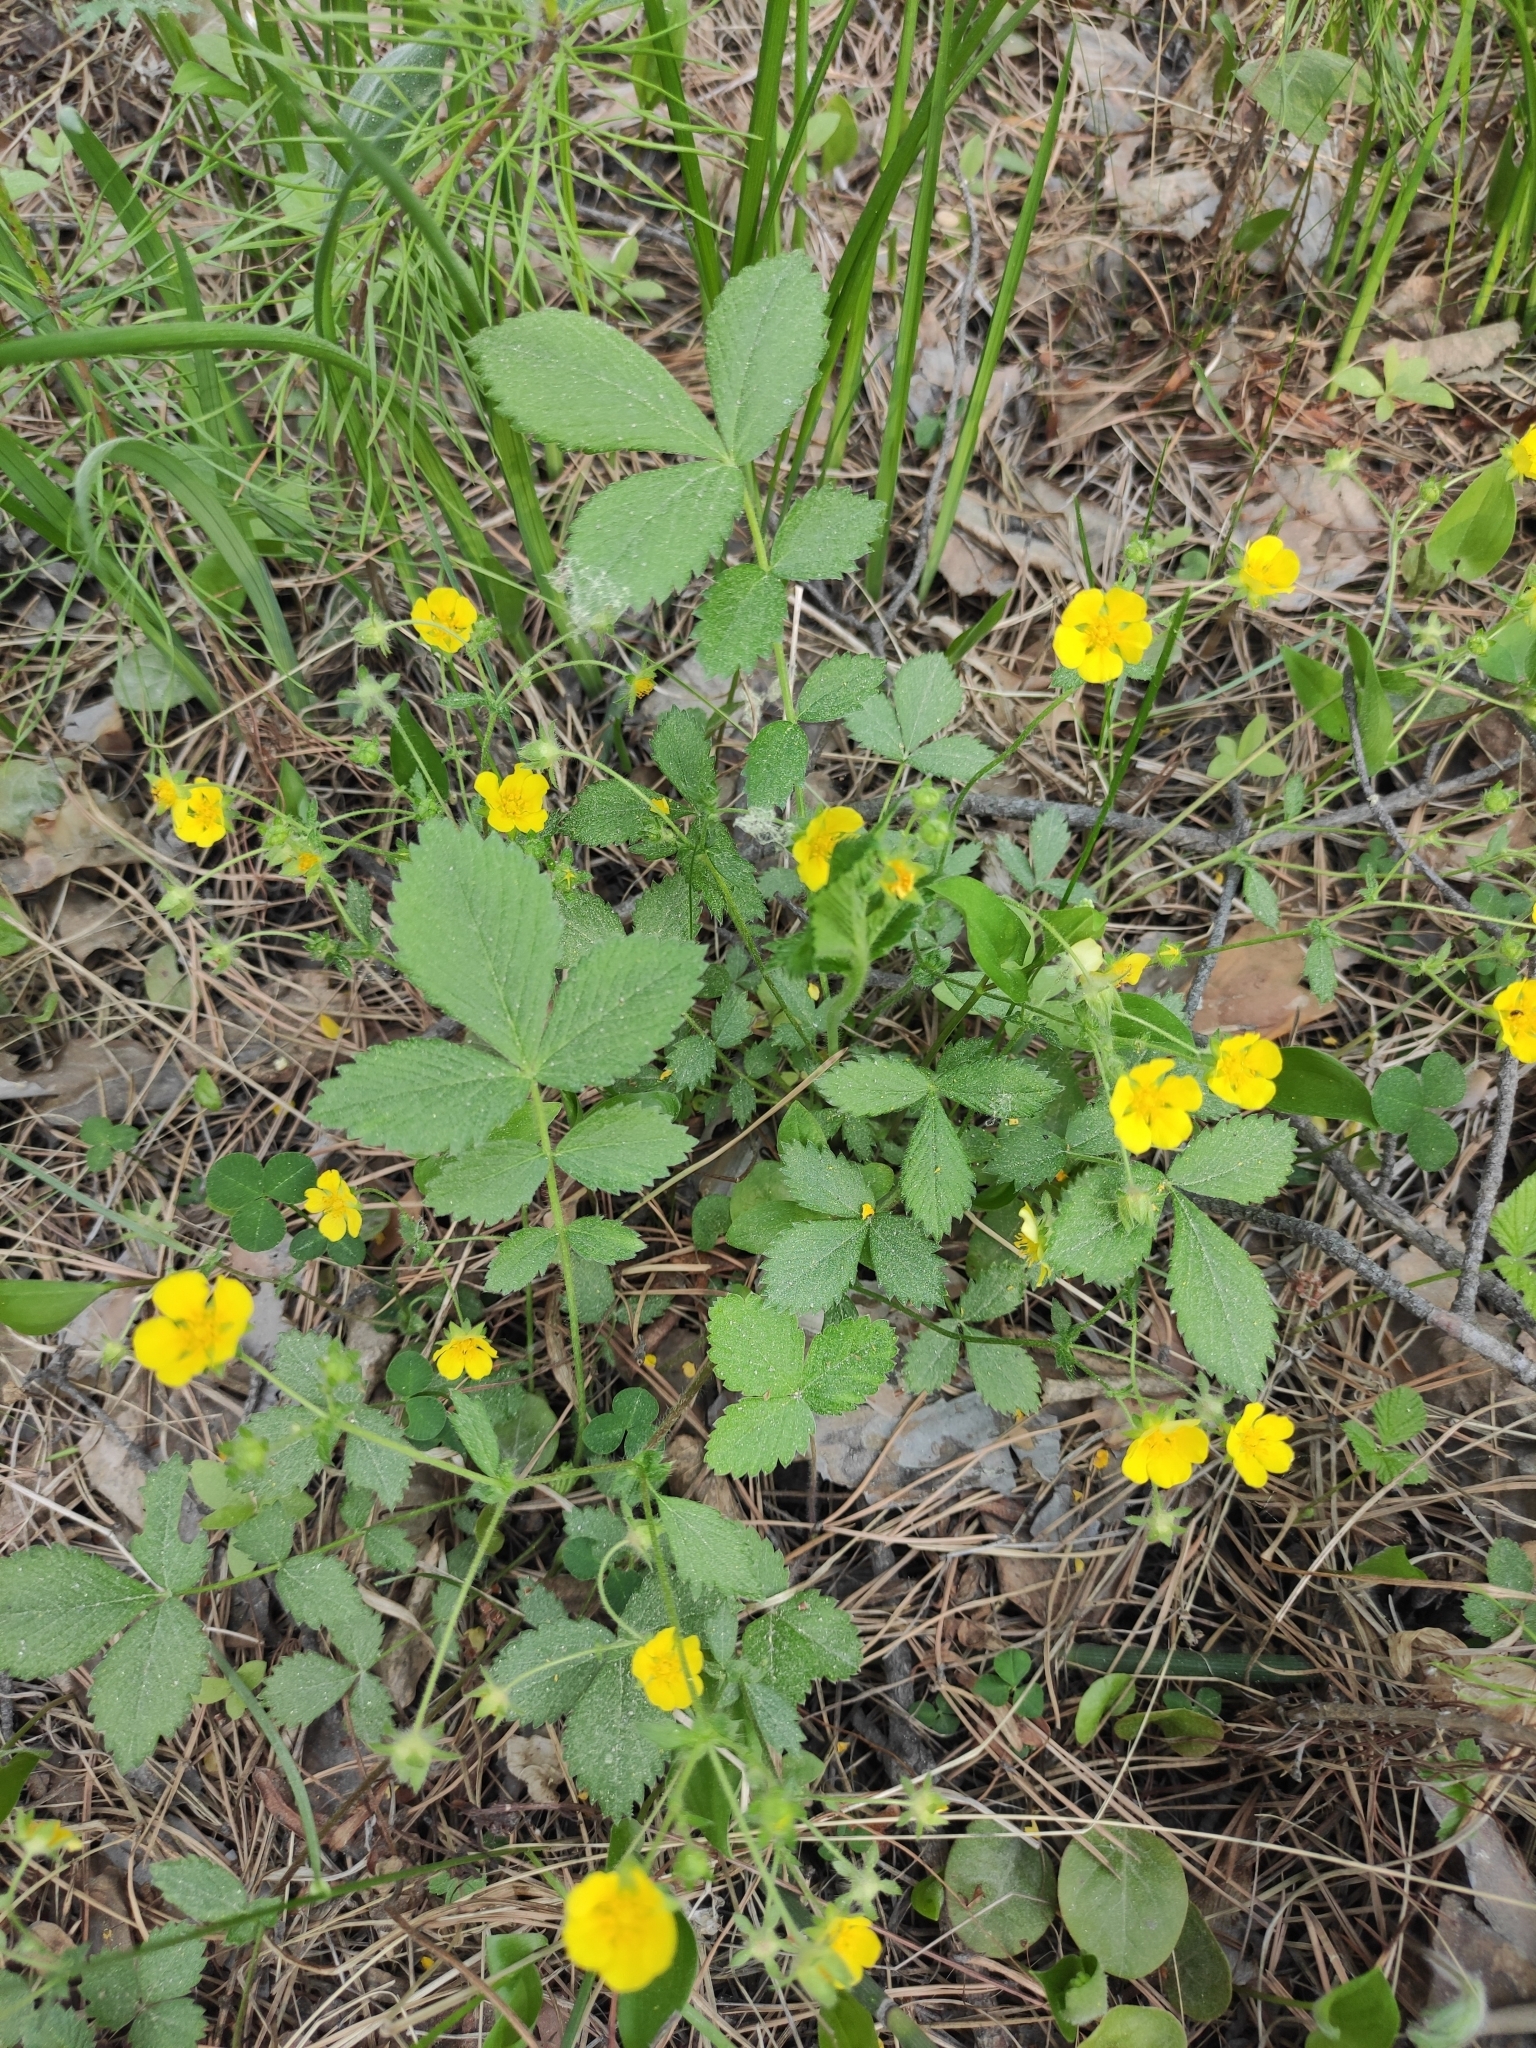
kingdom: Plantae
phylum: Tracheophyta
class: Magnoliopsida
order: Rosales
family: Rosaceae
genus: Potentilla
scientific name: Potentilla fragarioides
